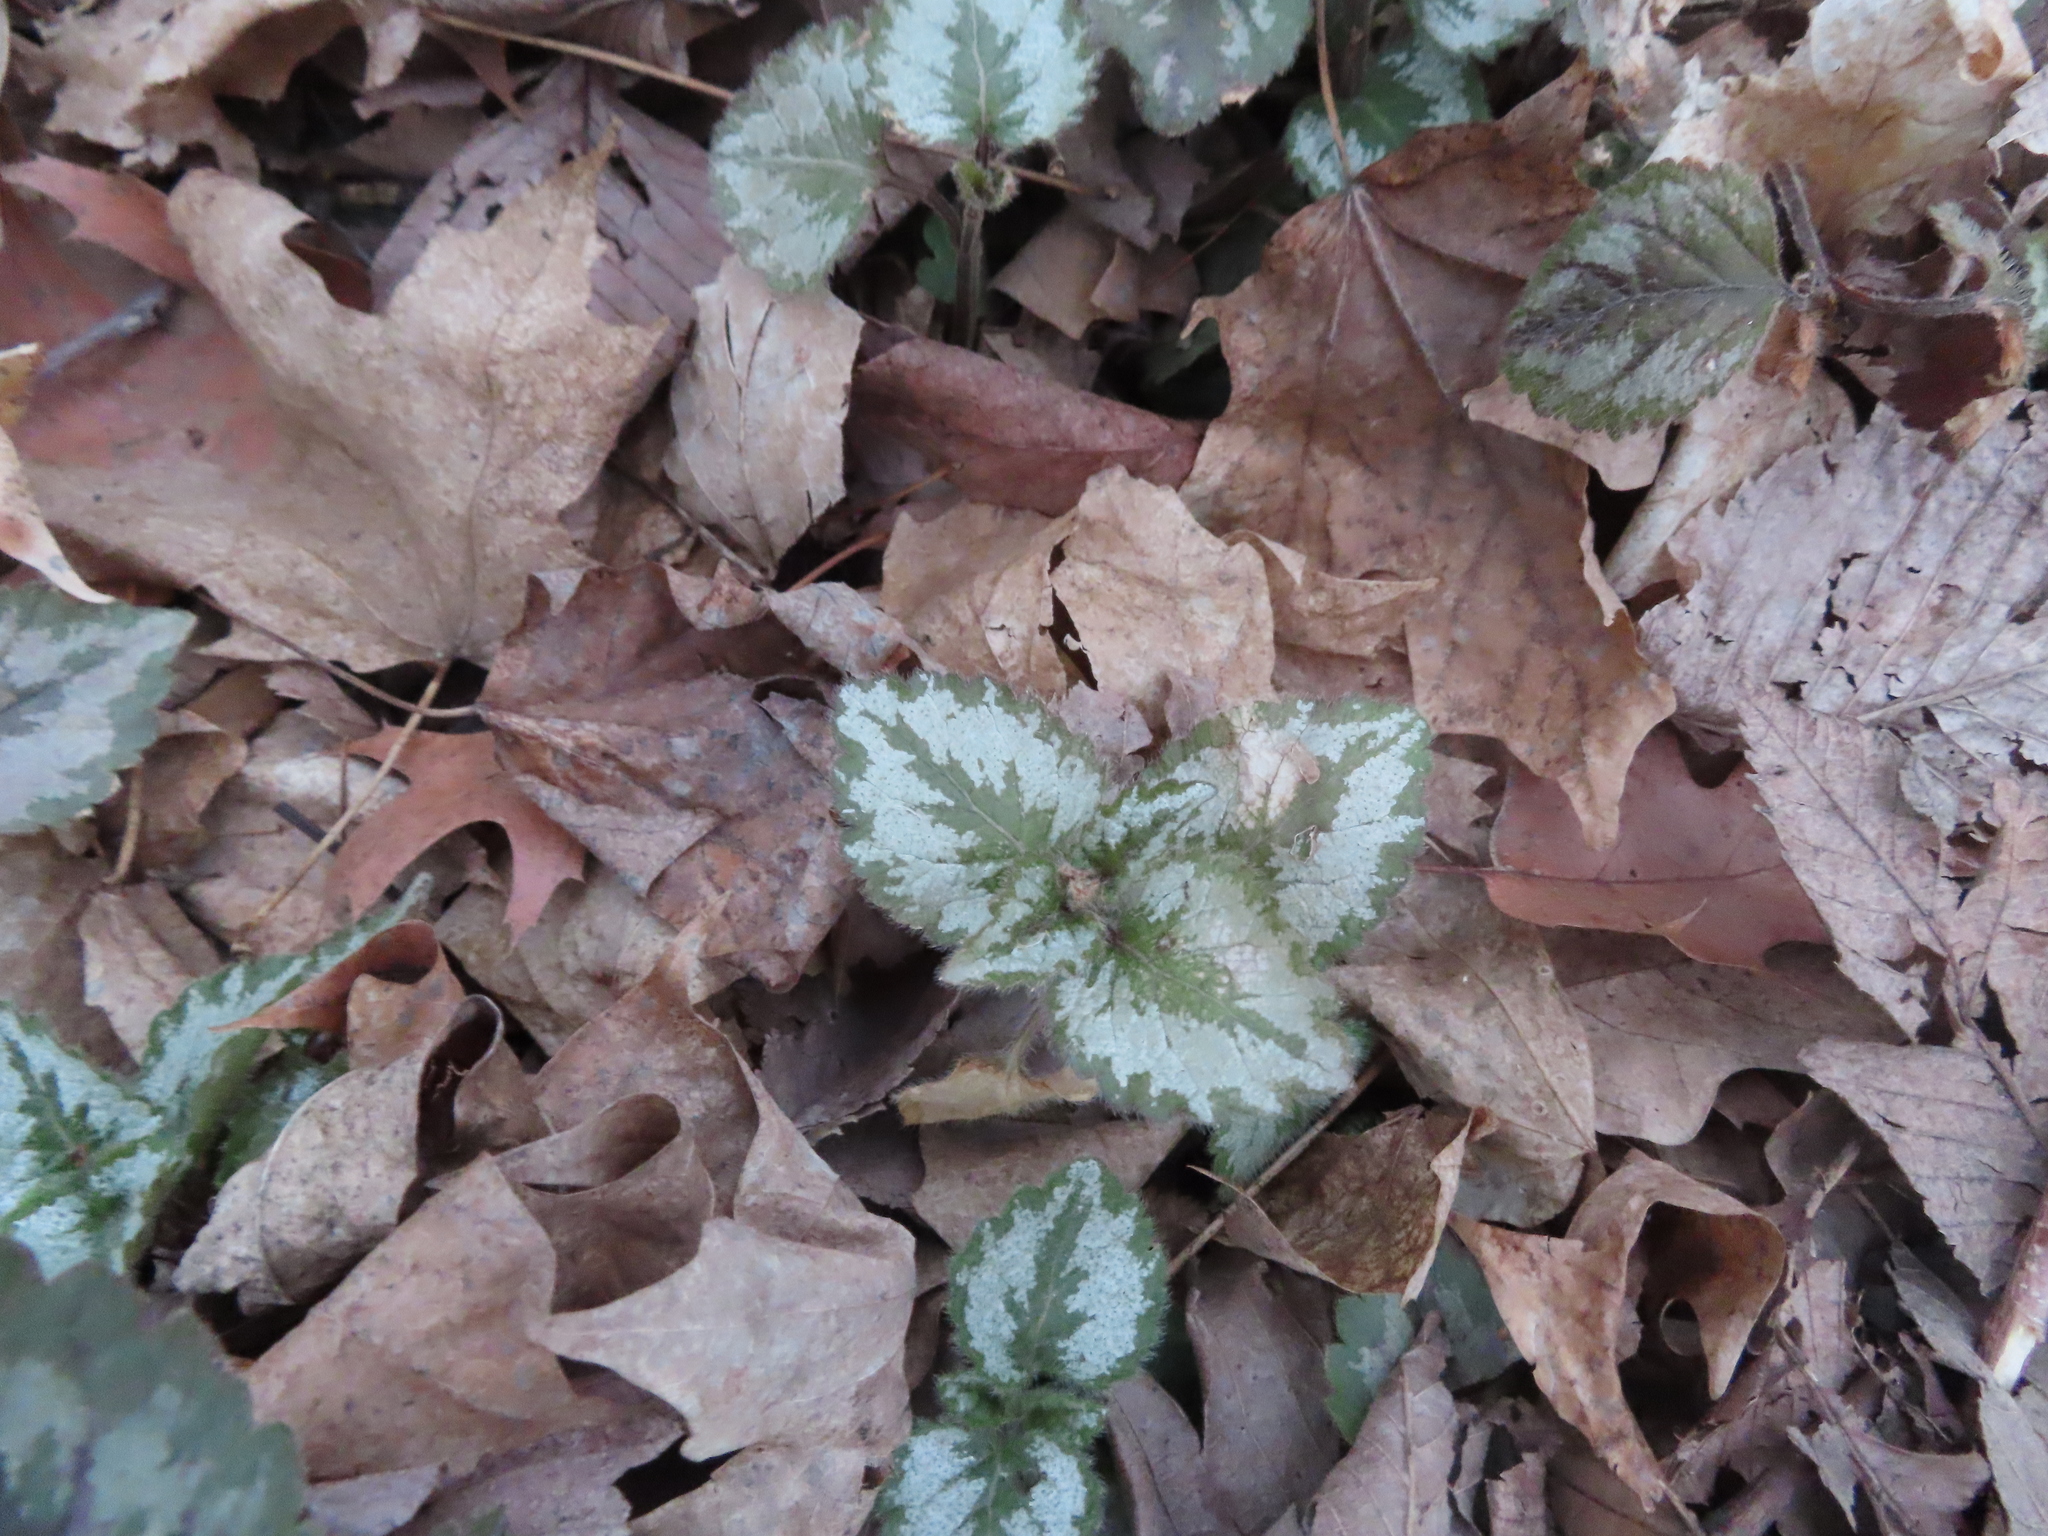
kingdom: Plantae
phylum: Tracheophyta
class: Magnoliopsida
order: Lamiales
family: Lamiaceae
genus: Lamium
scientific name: Lamium galeobdolon
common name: Yellow archangel
